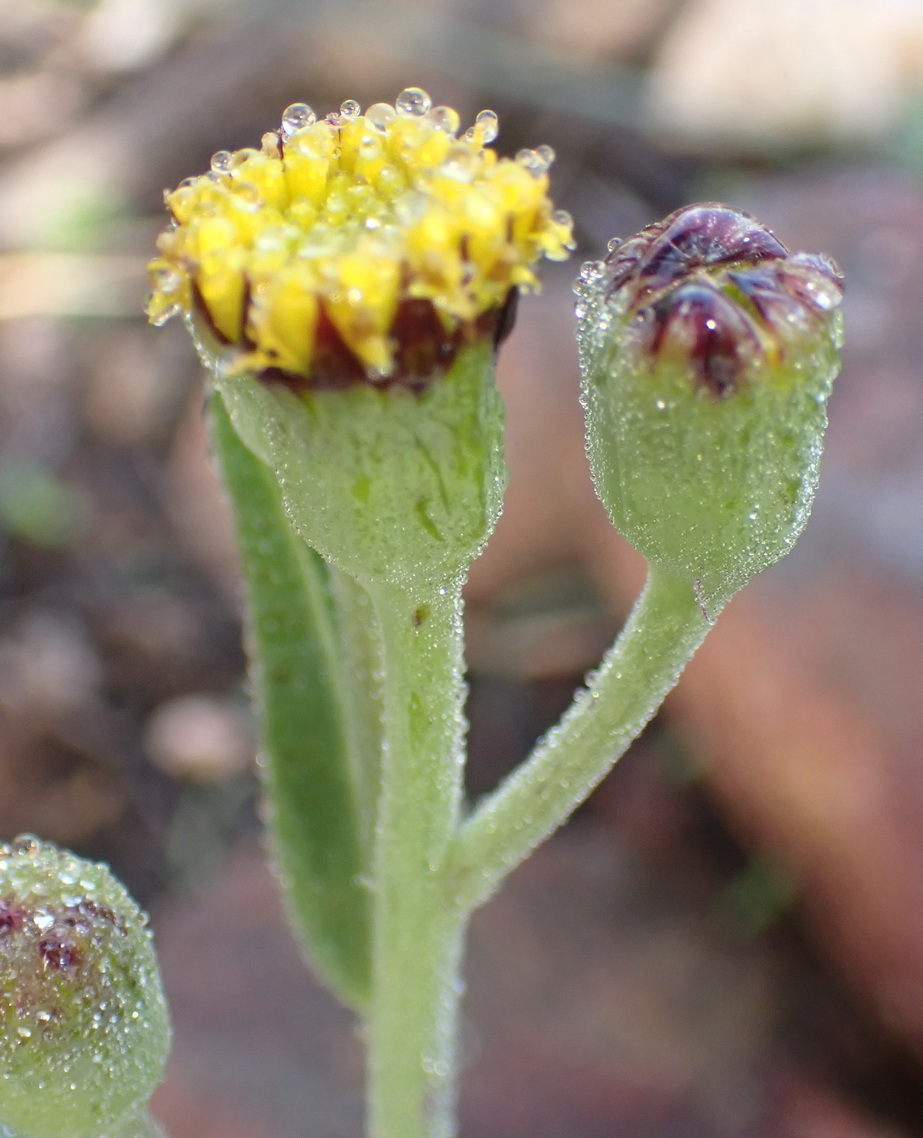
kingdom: Plantae
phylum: Tracheophyta
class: Magnoliopsida
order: Asterales
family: Asteraceae
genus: Othonna
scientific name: Othonna gymnodiscus
